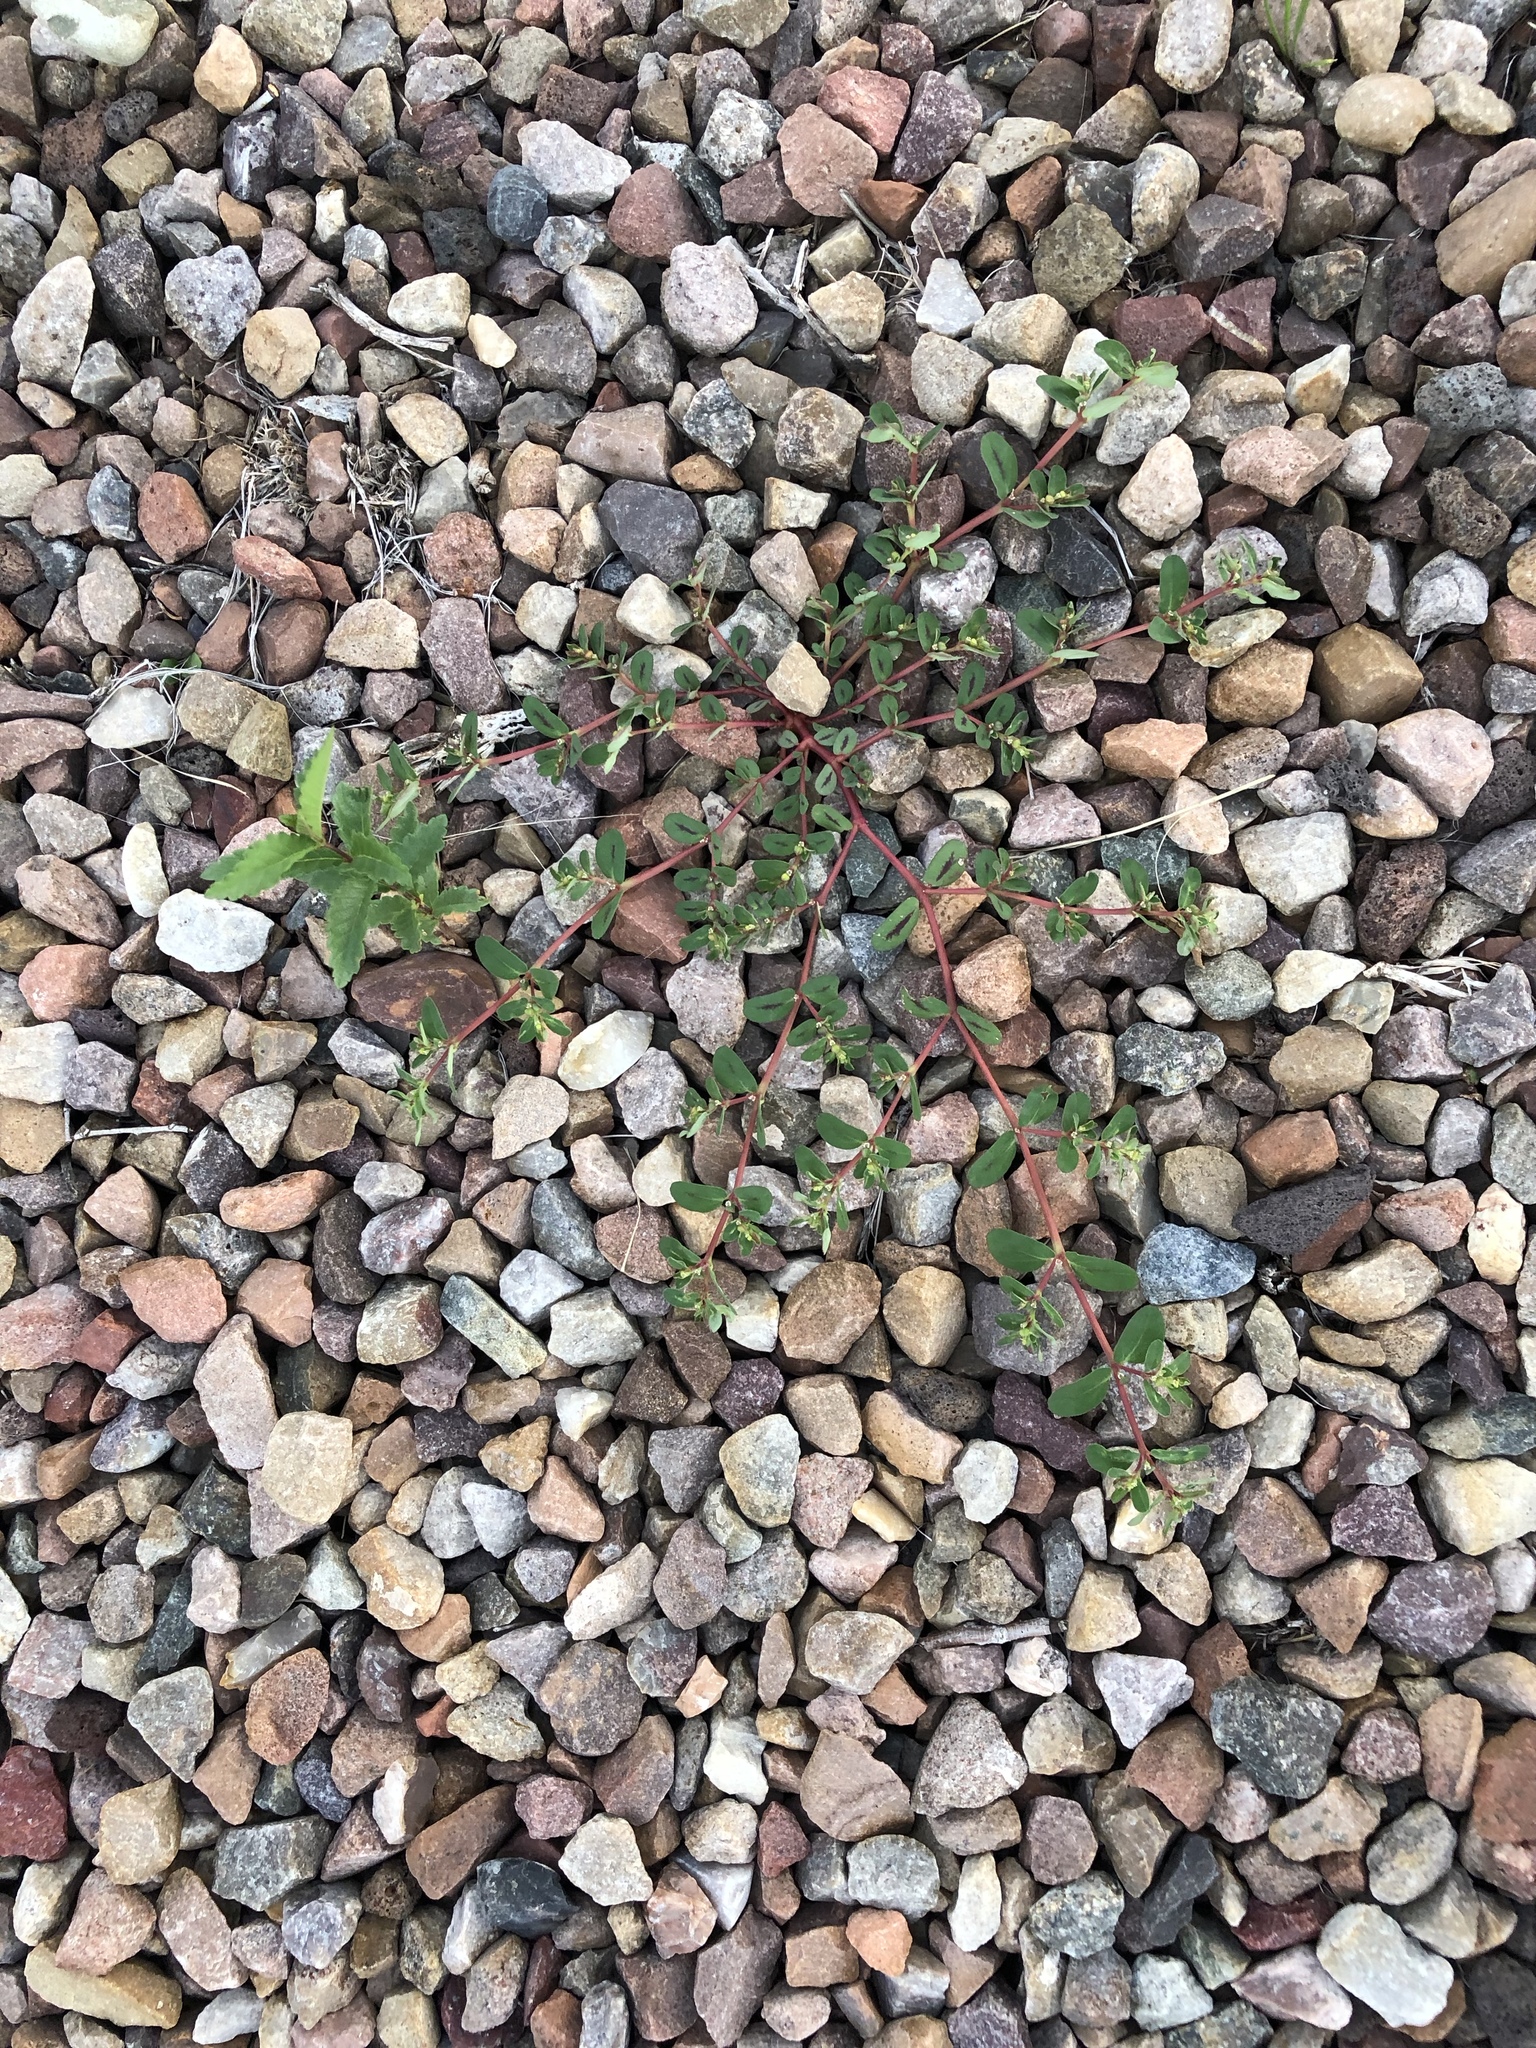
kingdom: Plantae
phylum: Tracheophyta
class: Magnoliopsida
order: Malpighiales
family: Euphorbiaceae
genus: Euphorbia
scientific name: Euphorbia serpillifolia
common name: Thyme-leaf spurge
